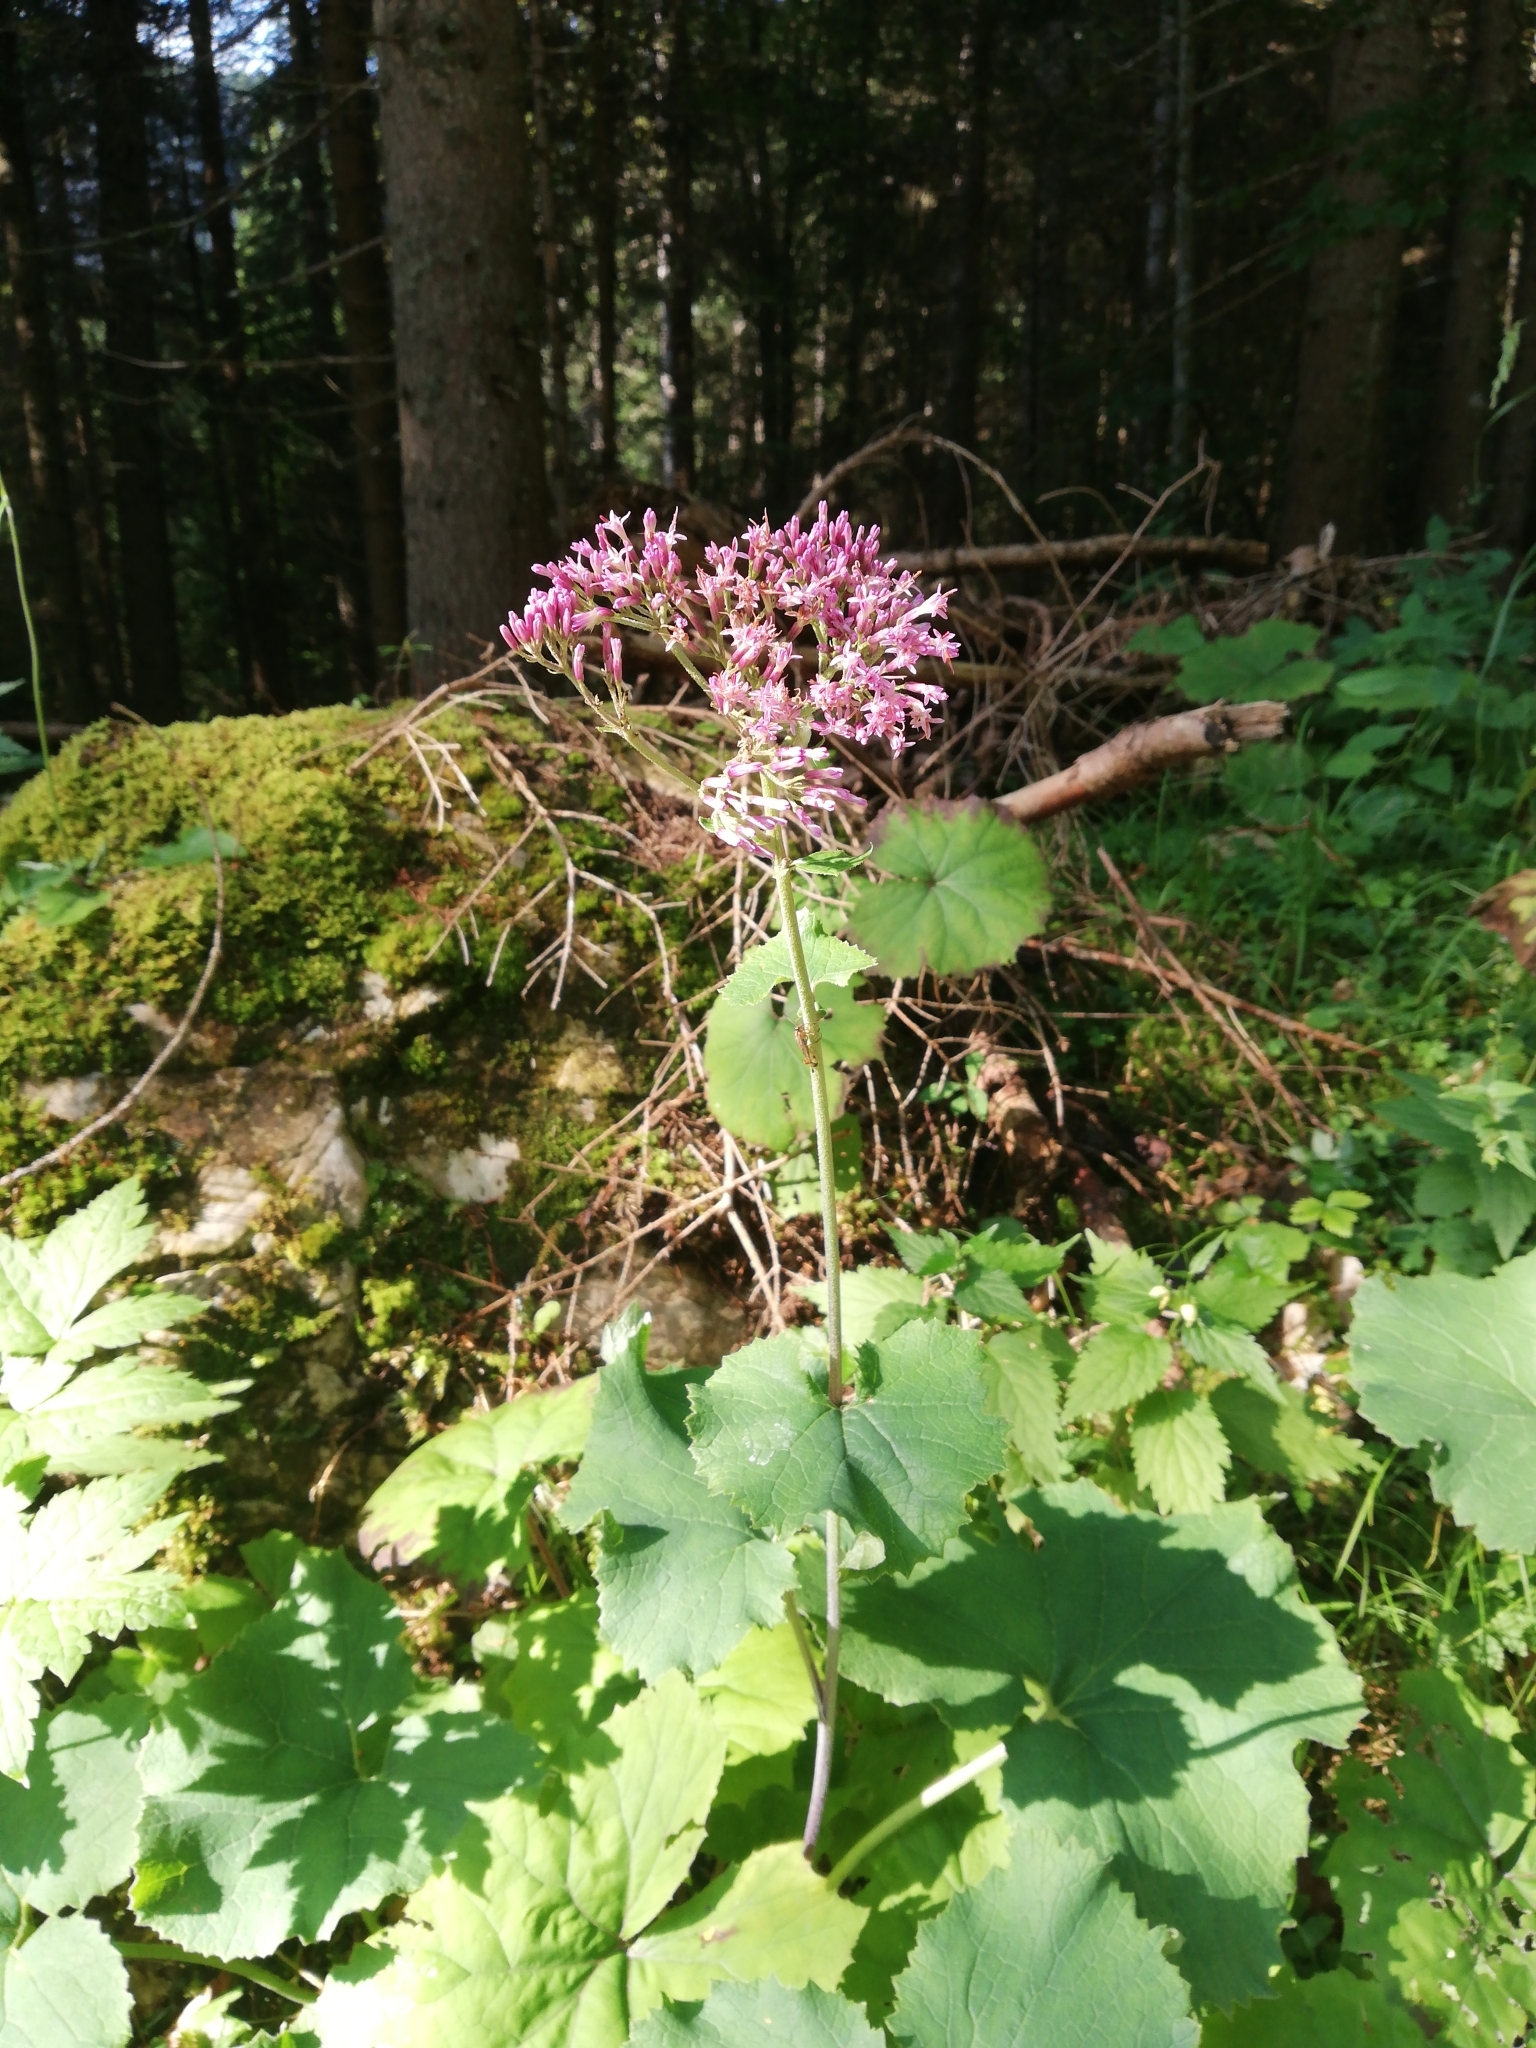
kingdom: Plantae
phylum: Tracheophyta
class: Magnoliopsida
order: Asterales
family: Asteraceae
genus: Adenostyles
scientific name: Adenostyles alliariae
